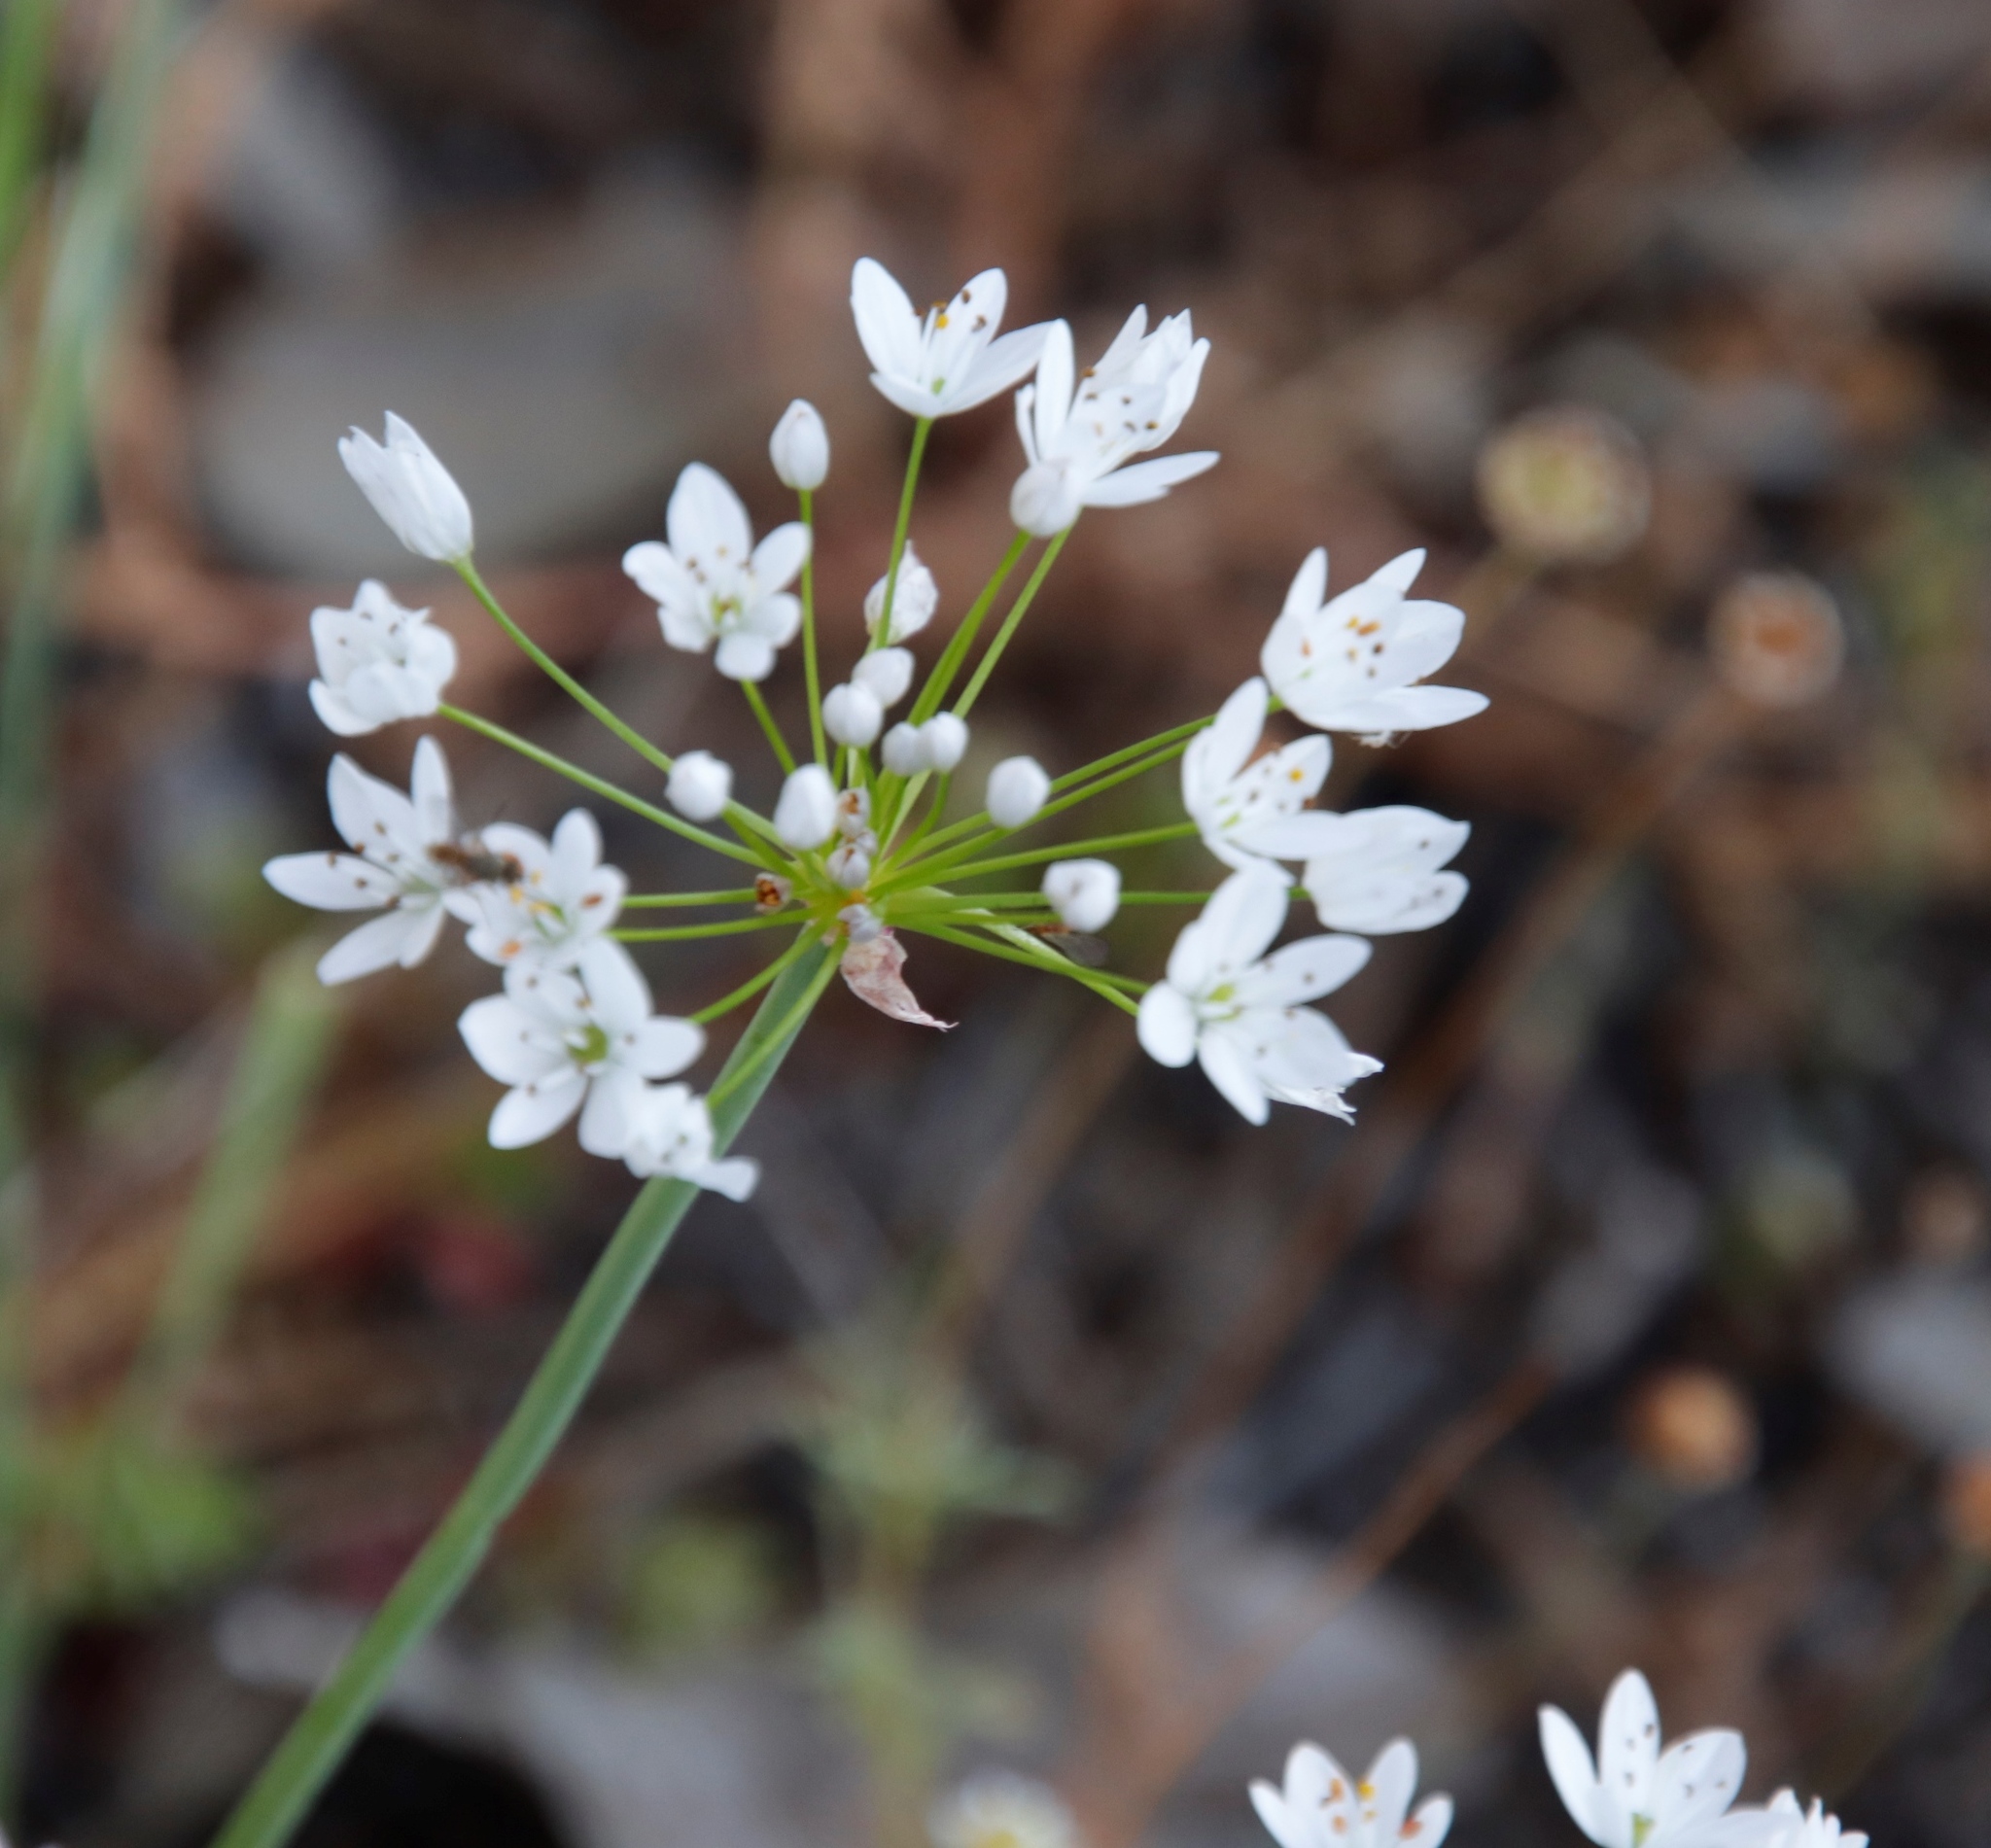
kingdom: Plantae
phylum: Tracheophyta
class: Liliopsida
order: Asparagales
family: Amaryllidaceae
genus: Nothoscordum
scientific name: Nothoscordum gracile
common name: Slender false garlic
